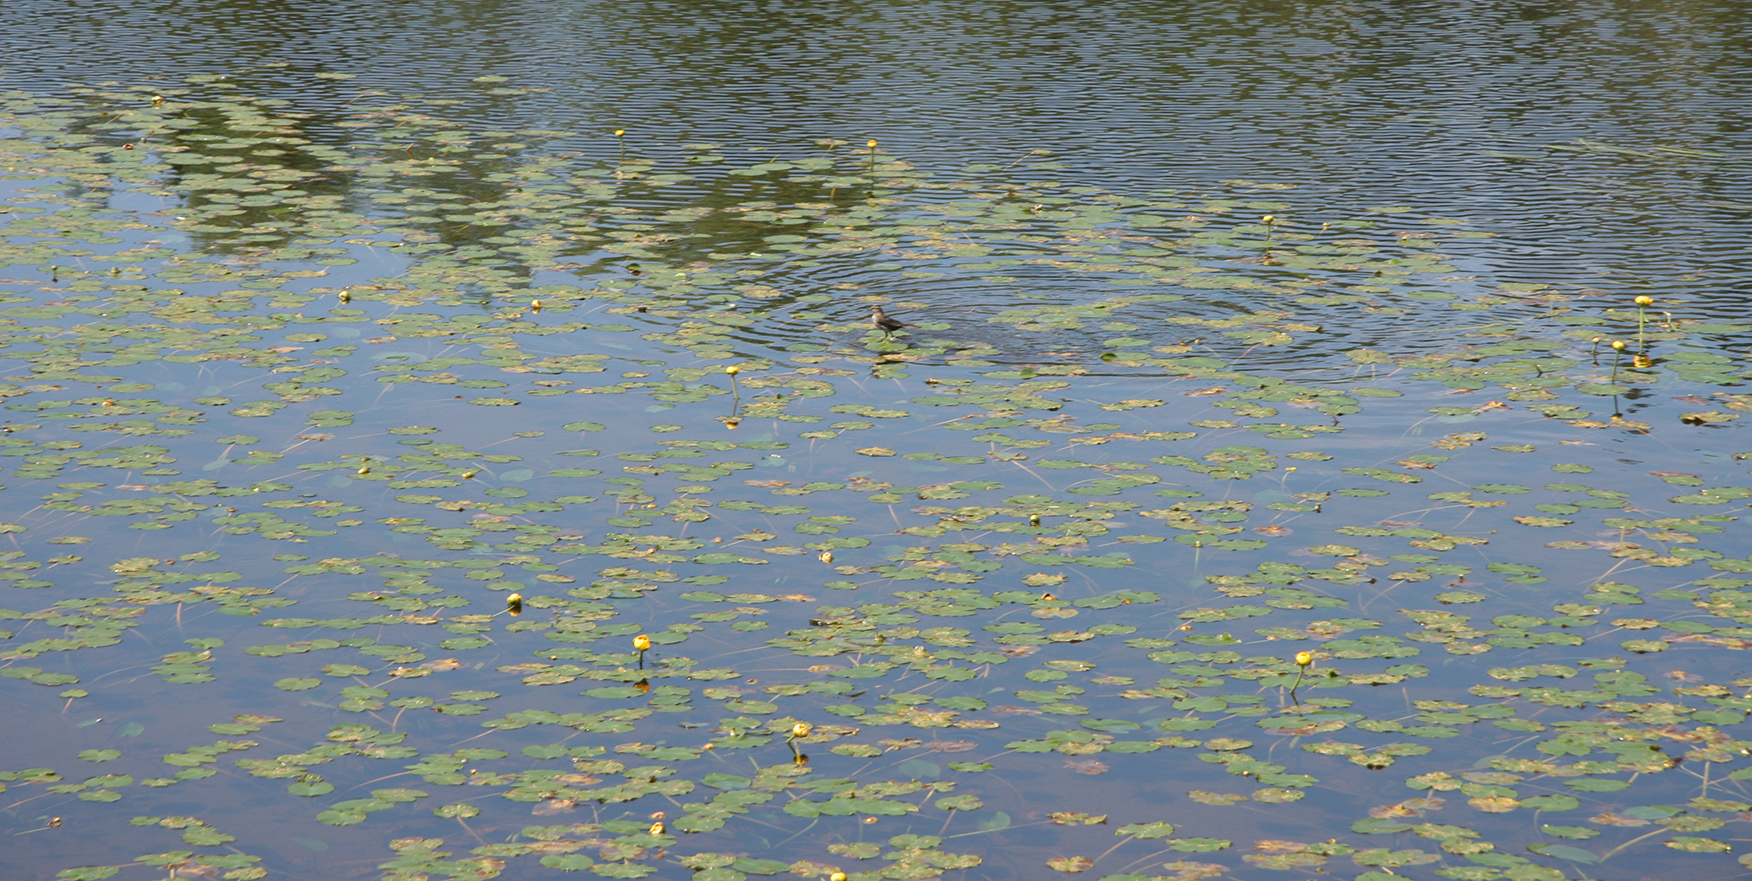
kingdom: Plantae
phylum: Tracheophyta
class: Magnoliopsida
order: Nymphaeales
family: Nymphaeaceae
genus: Nuphar
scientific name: Nuphar variegata
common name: Beaver-root
